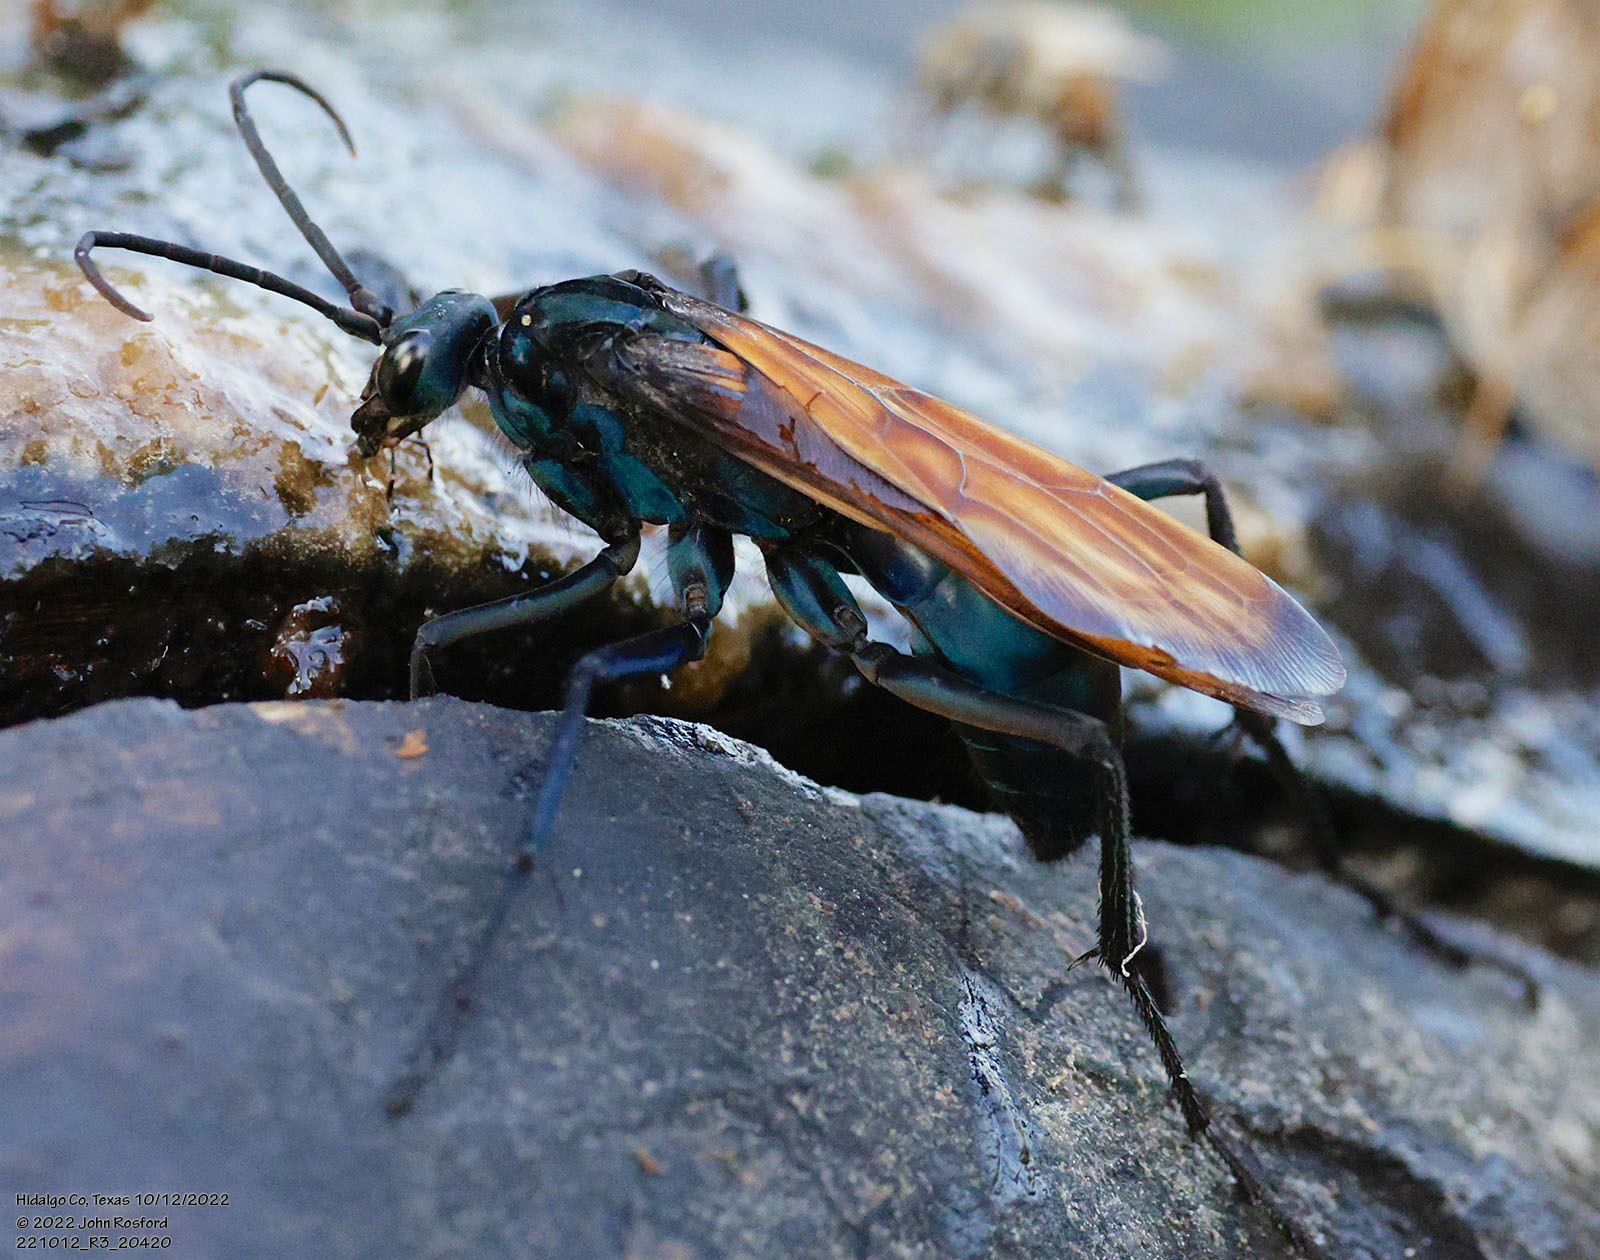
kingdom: Animalia
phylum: Arthropoda
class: Insecta
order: Hymenoptera
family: Pompilidae
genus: Pepsis
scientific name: Pepsis thisbe
